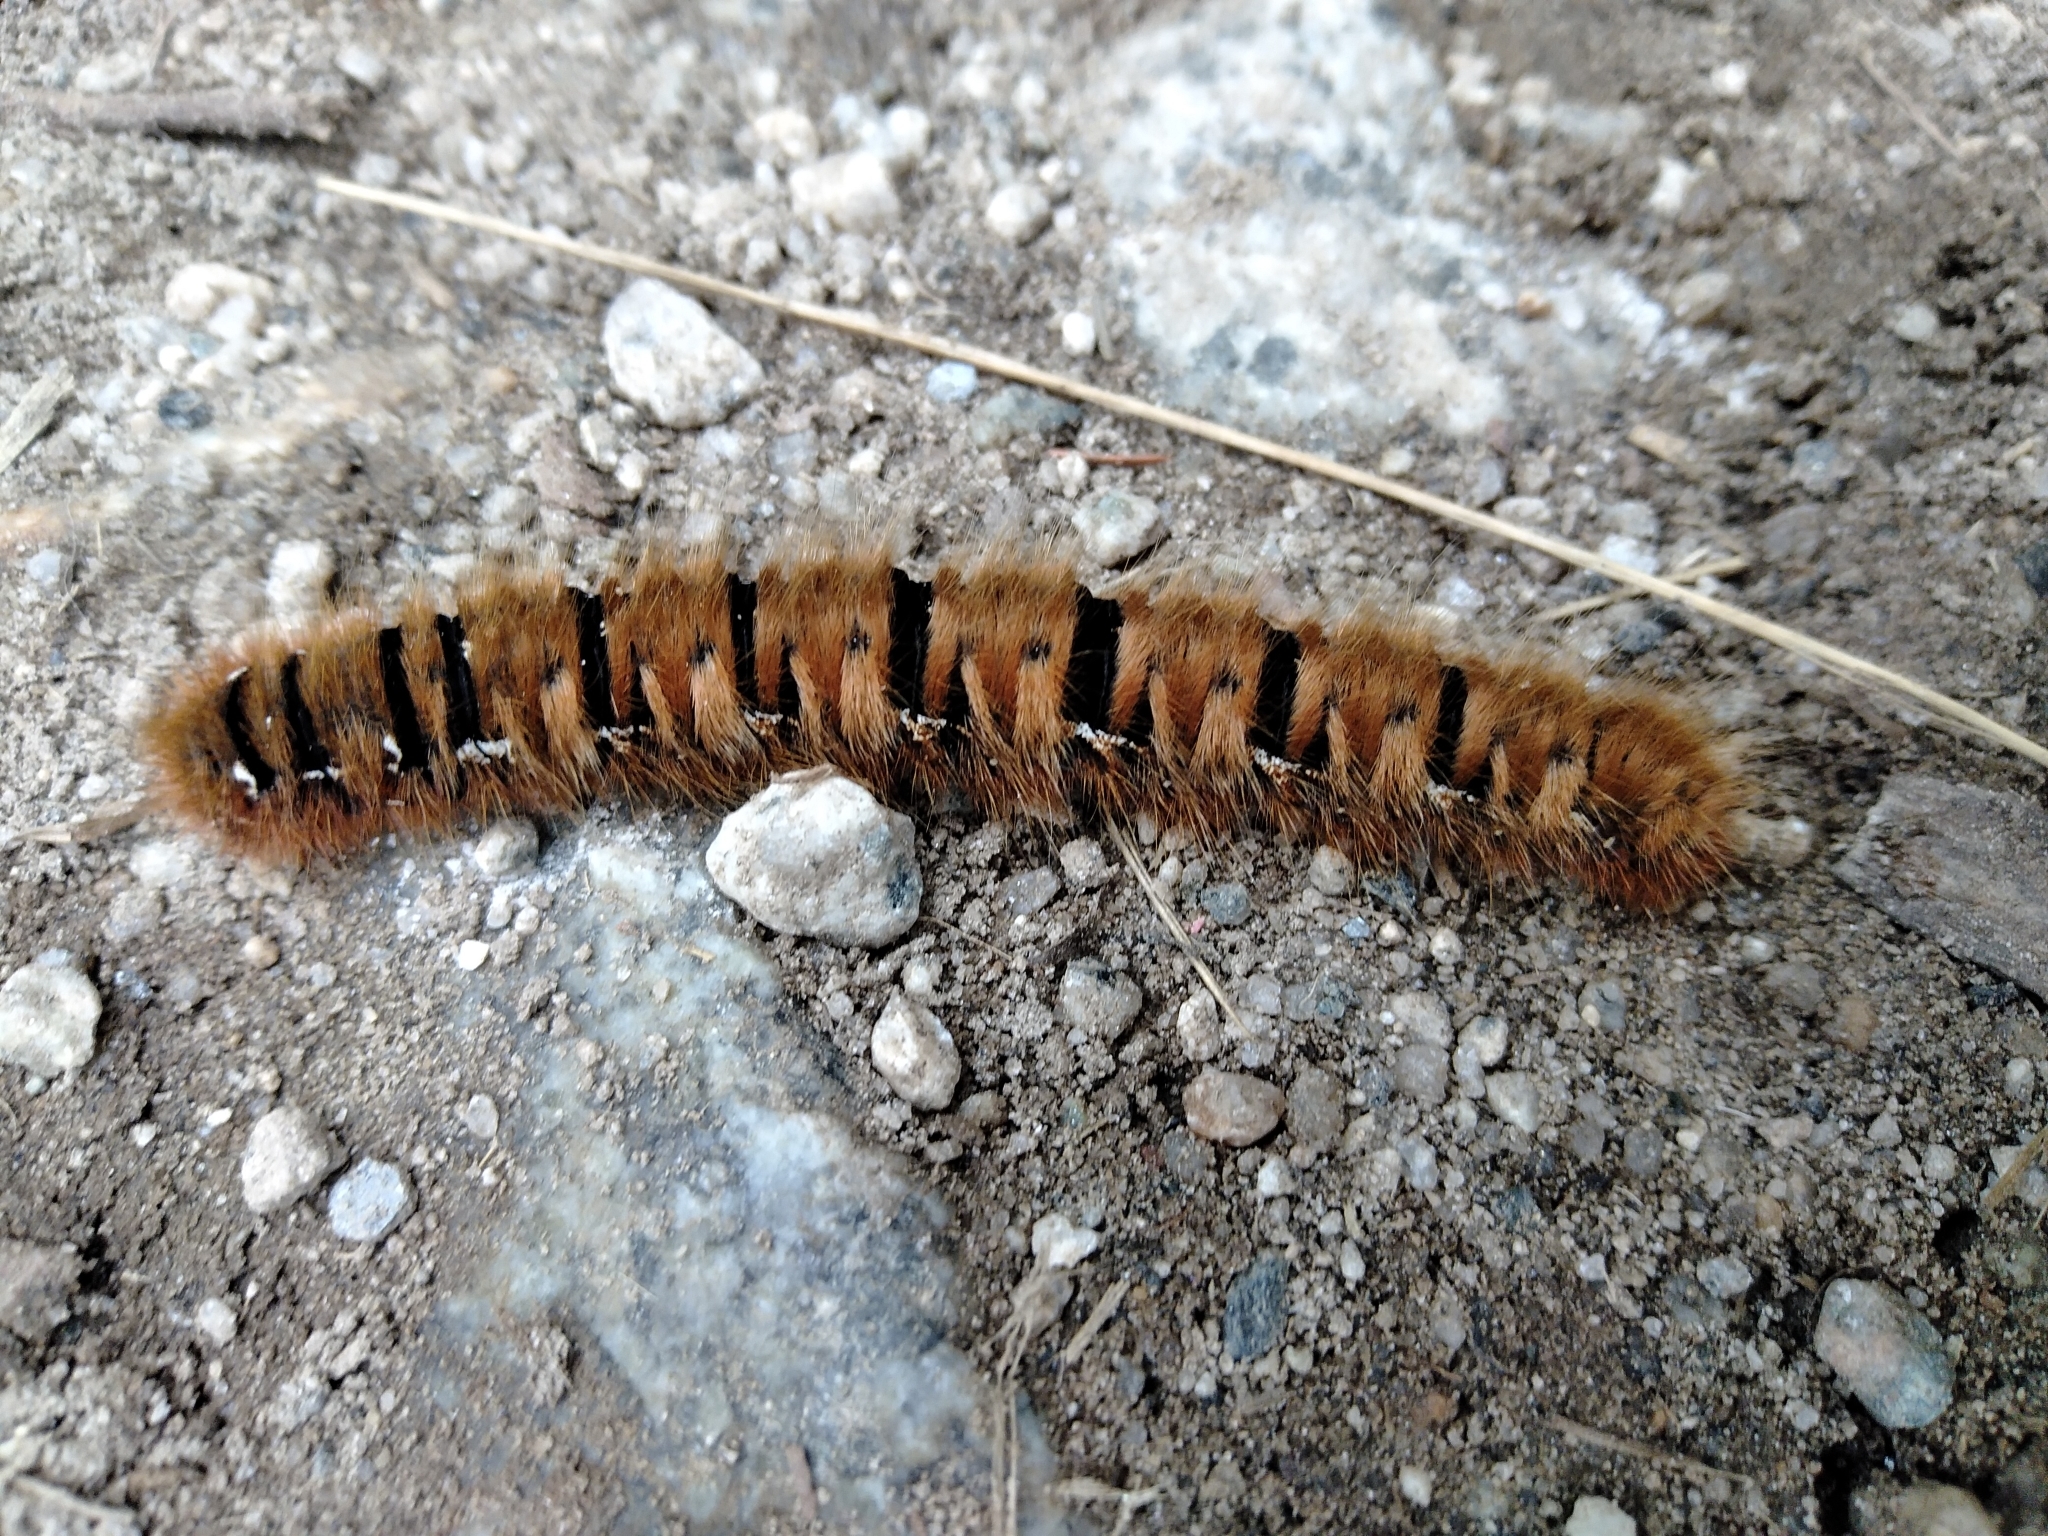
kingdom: Animalia
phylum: Arthropoda
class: Insecta
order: Lepidoptera
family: Lasiocampidae
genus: Lasiocampa
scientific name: Lasiocampa quercus
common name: Oak eggar
